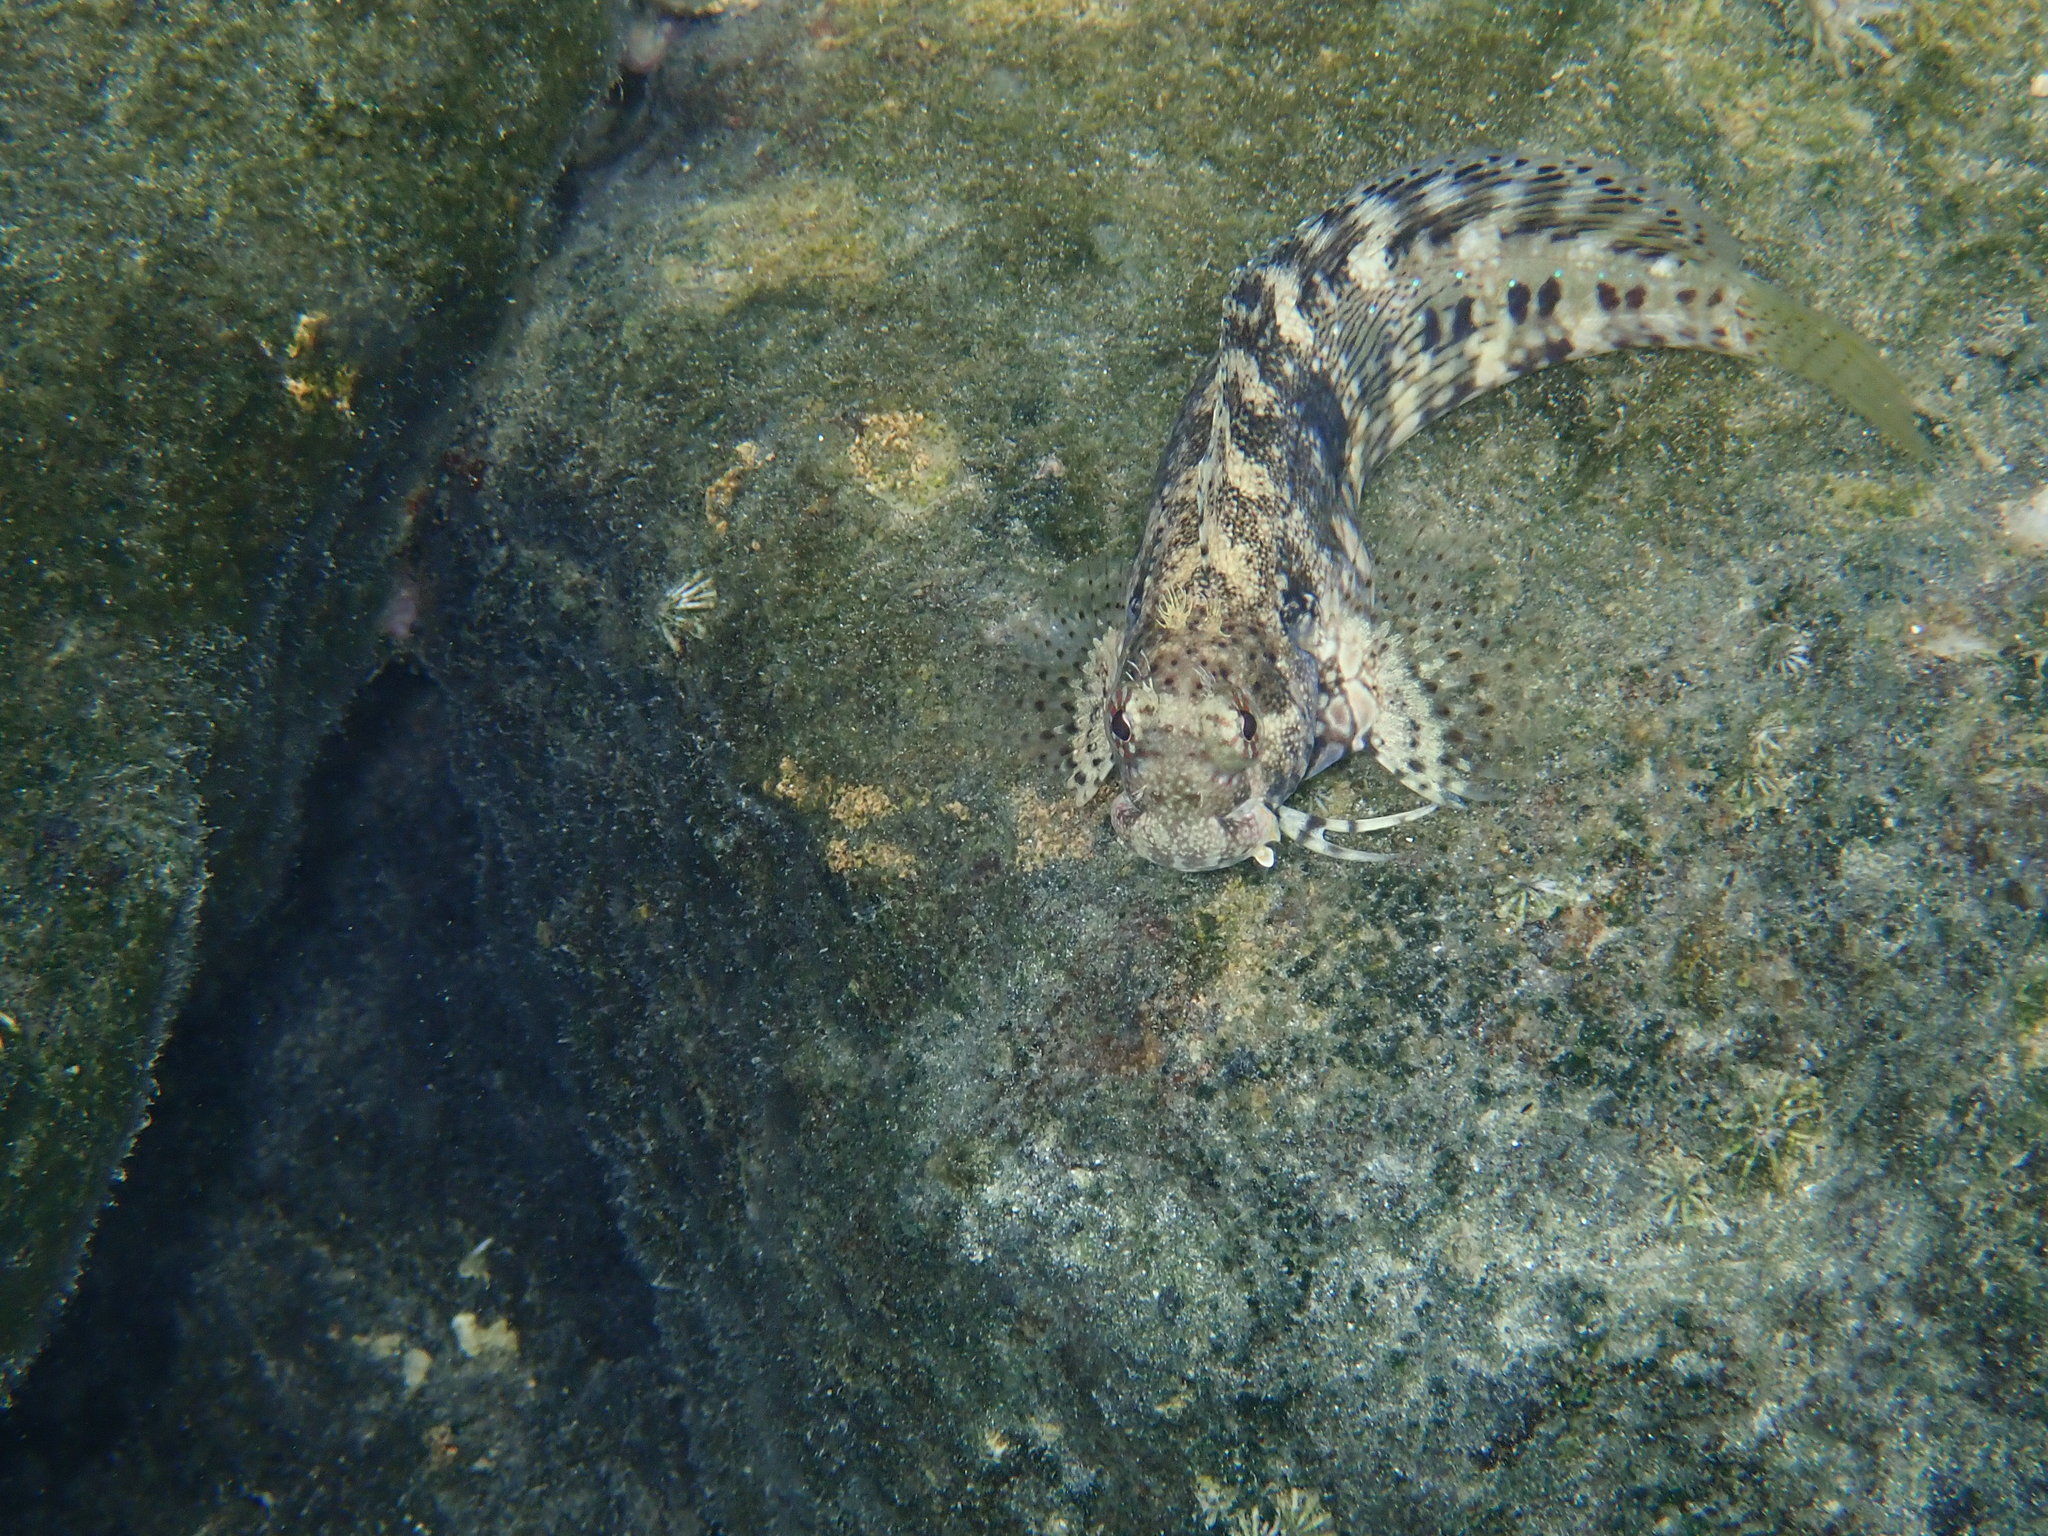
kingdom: Animalia
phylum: Chordata
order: Perciformes
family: Blenniidae
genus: Salarias
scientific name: Salarias fasciatus
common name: Jewelled blenny
